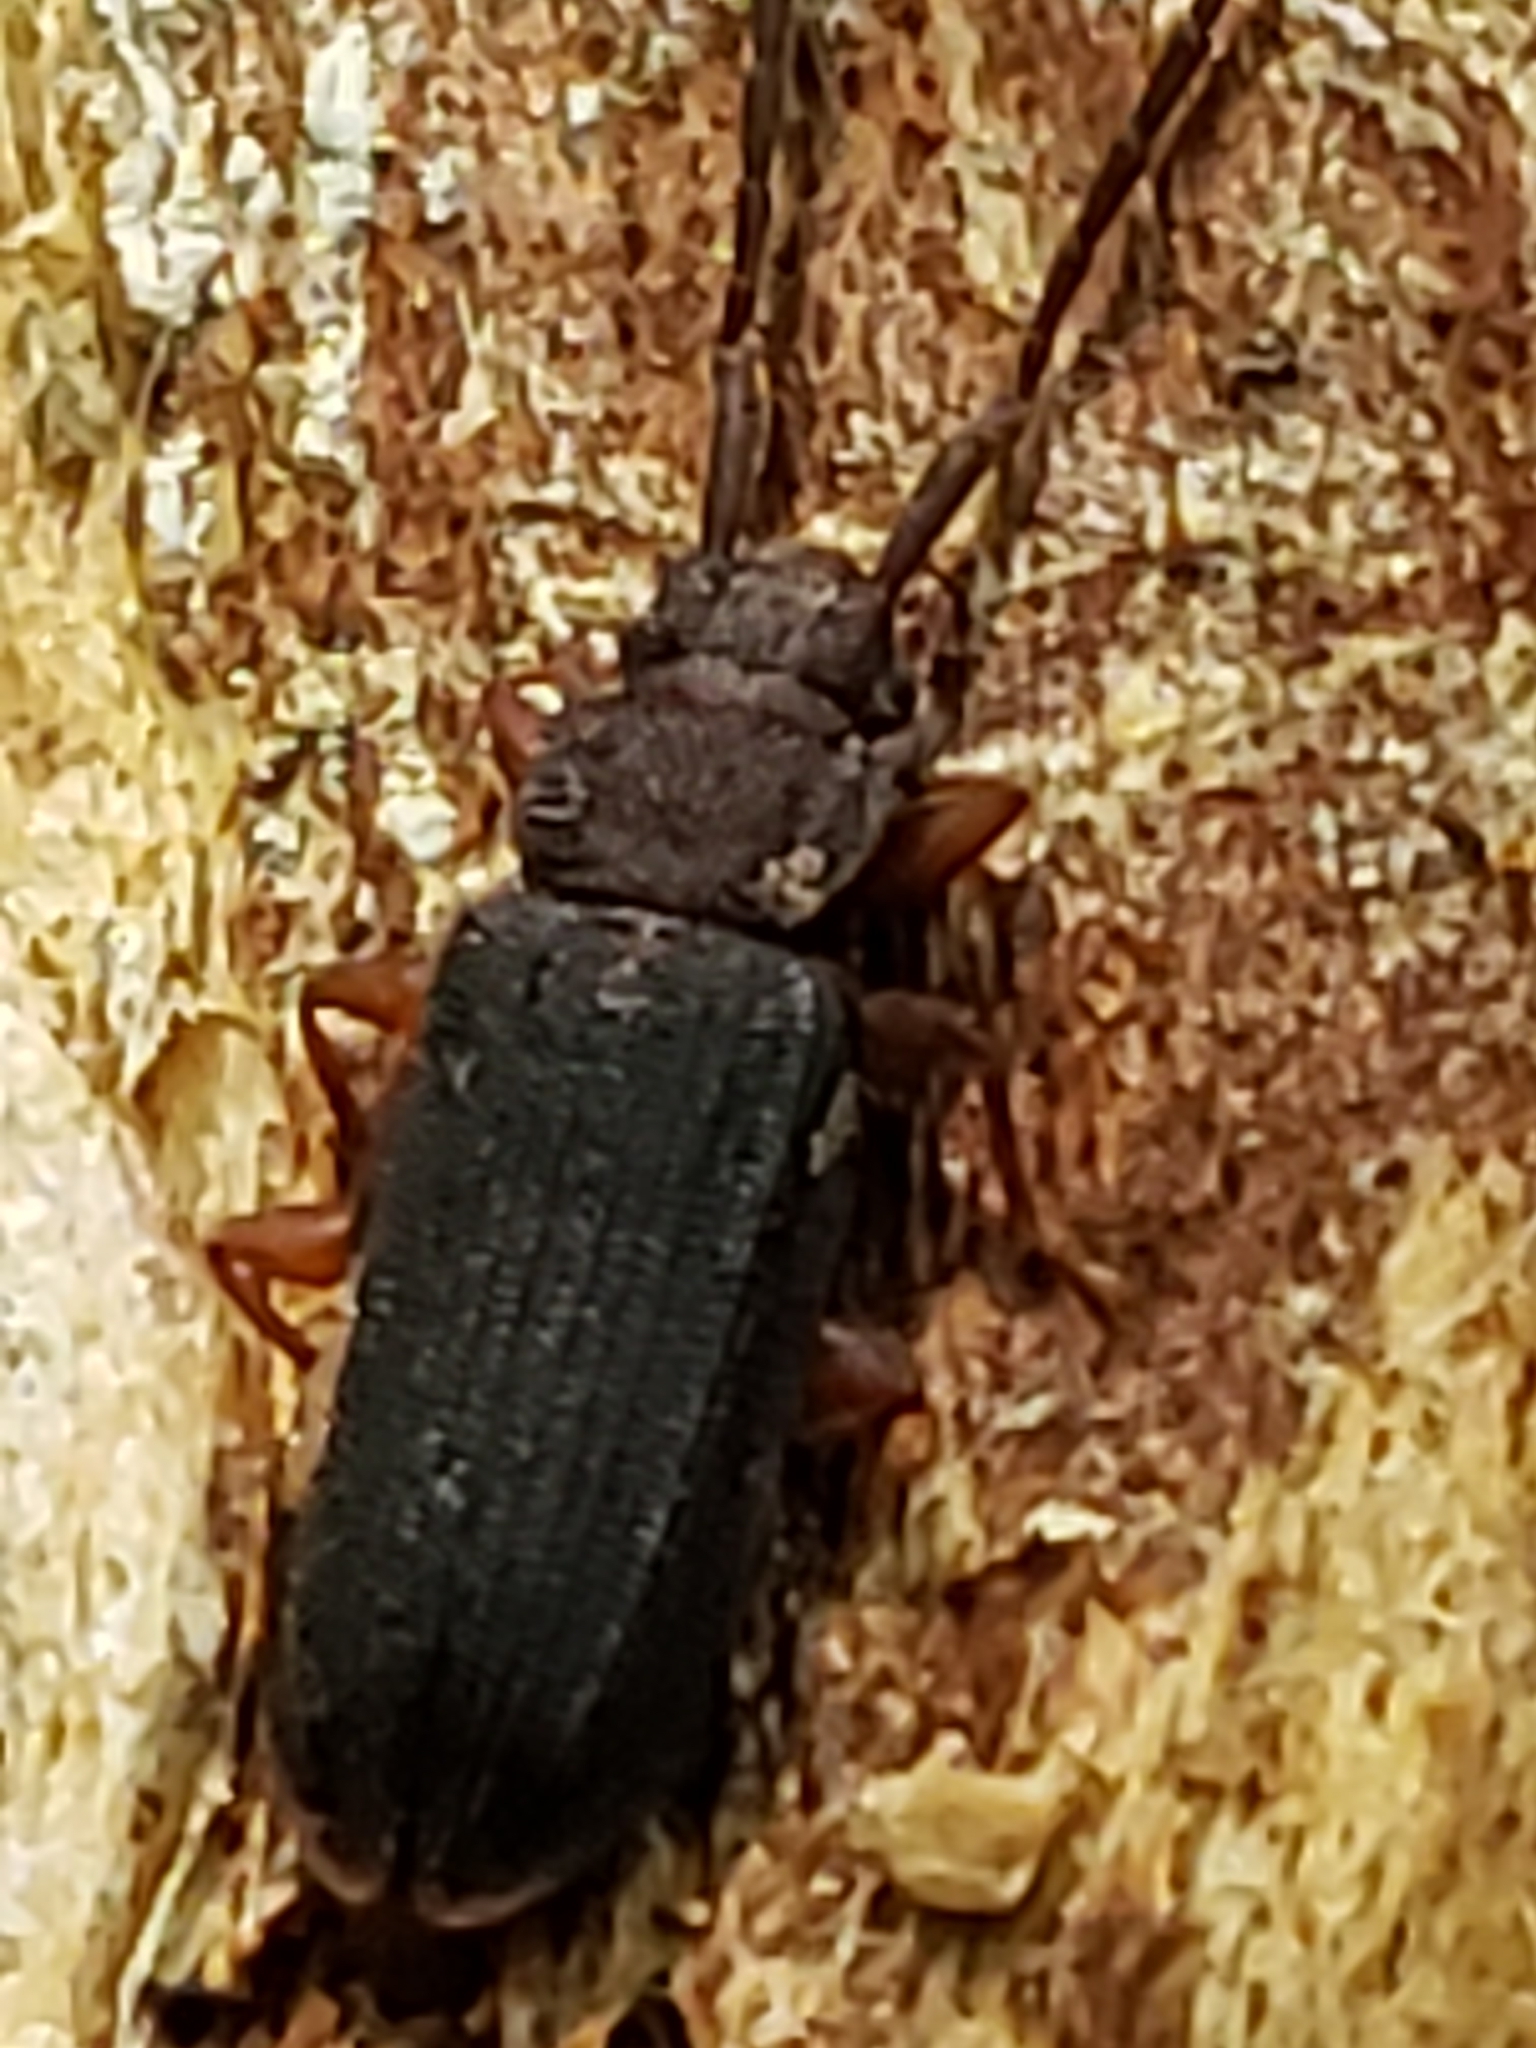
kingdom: Animalia
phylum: Arthropoda
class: Insecta
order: Coleoptera
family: Silvanidae
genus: Uleiota
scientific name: Uleiota dubia
